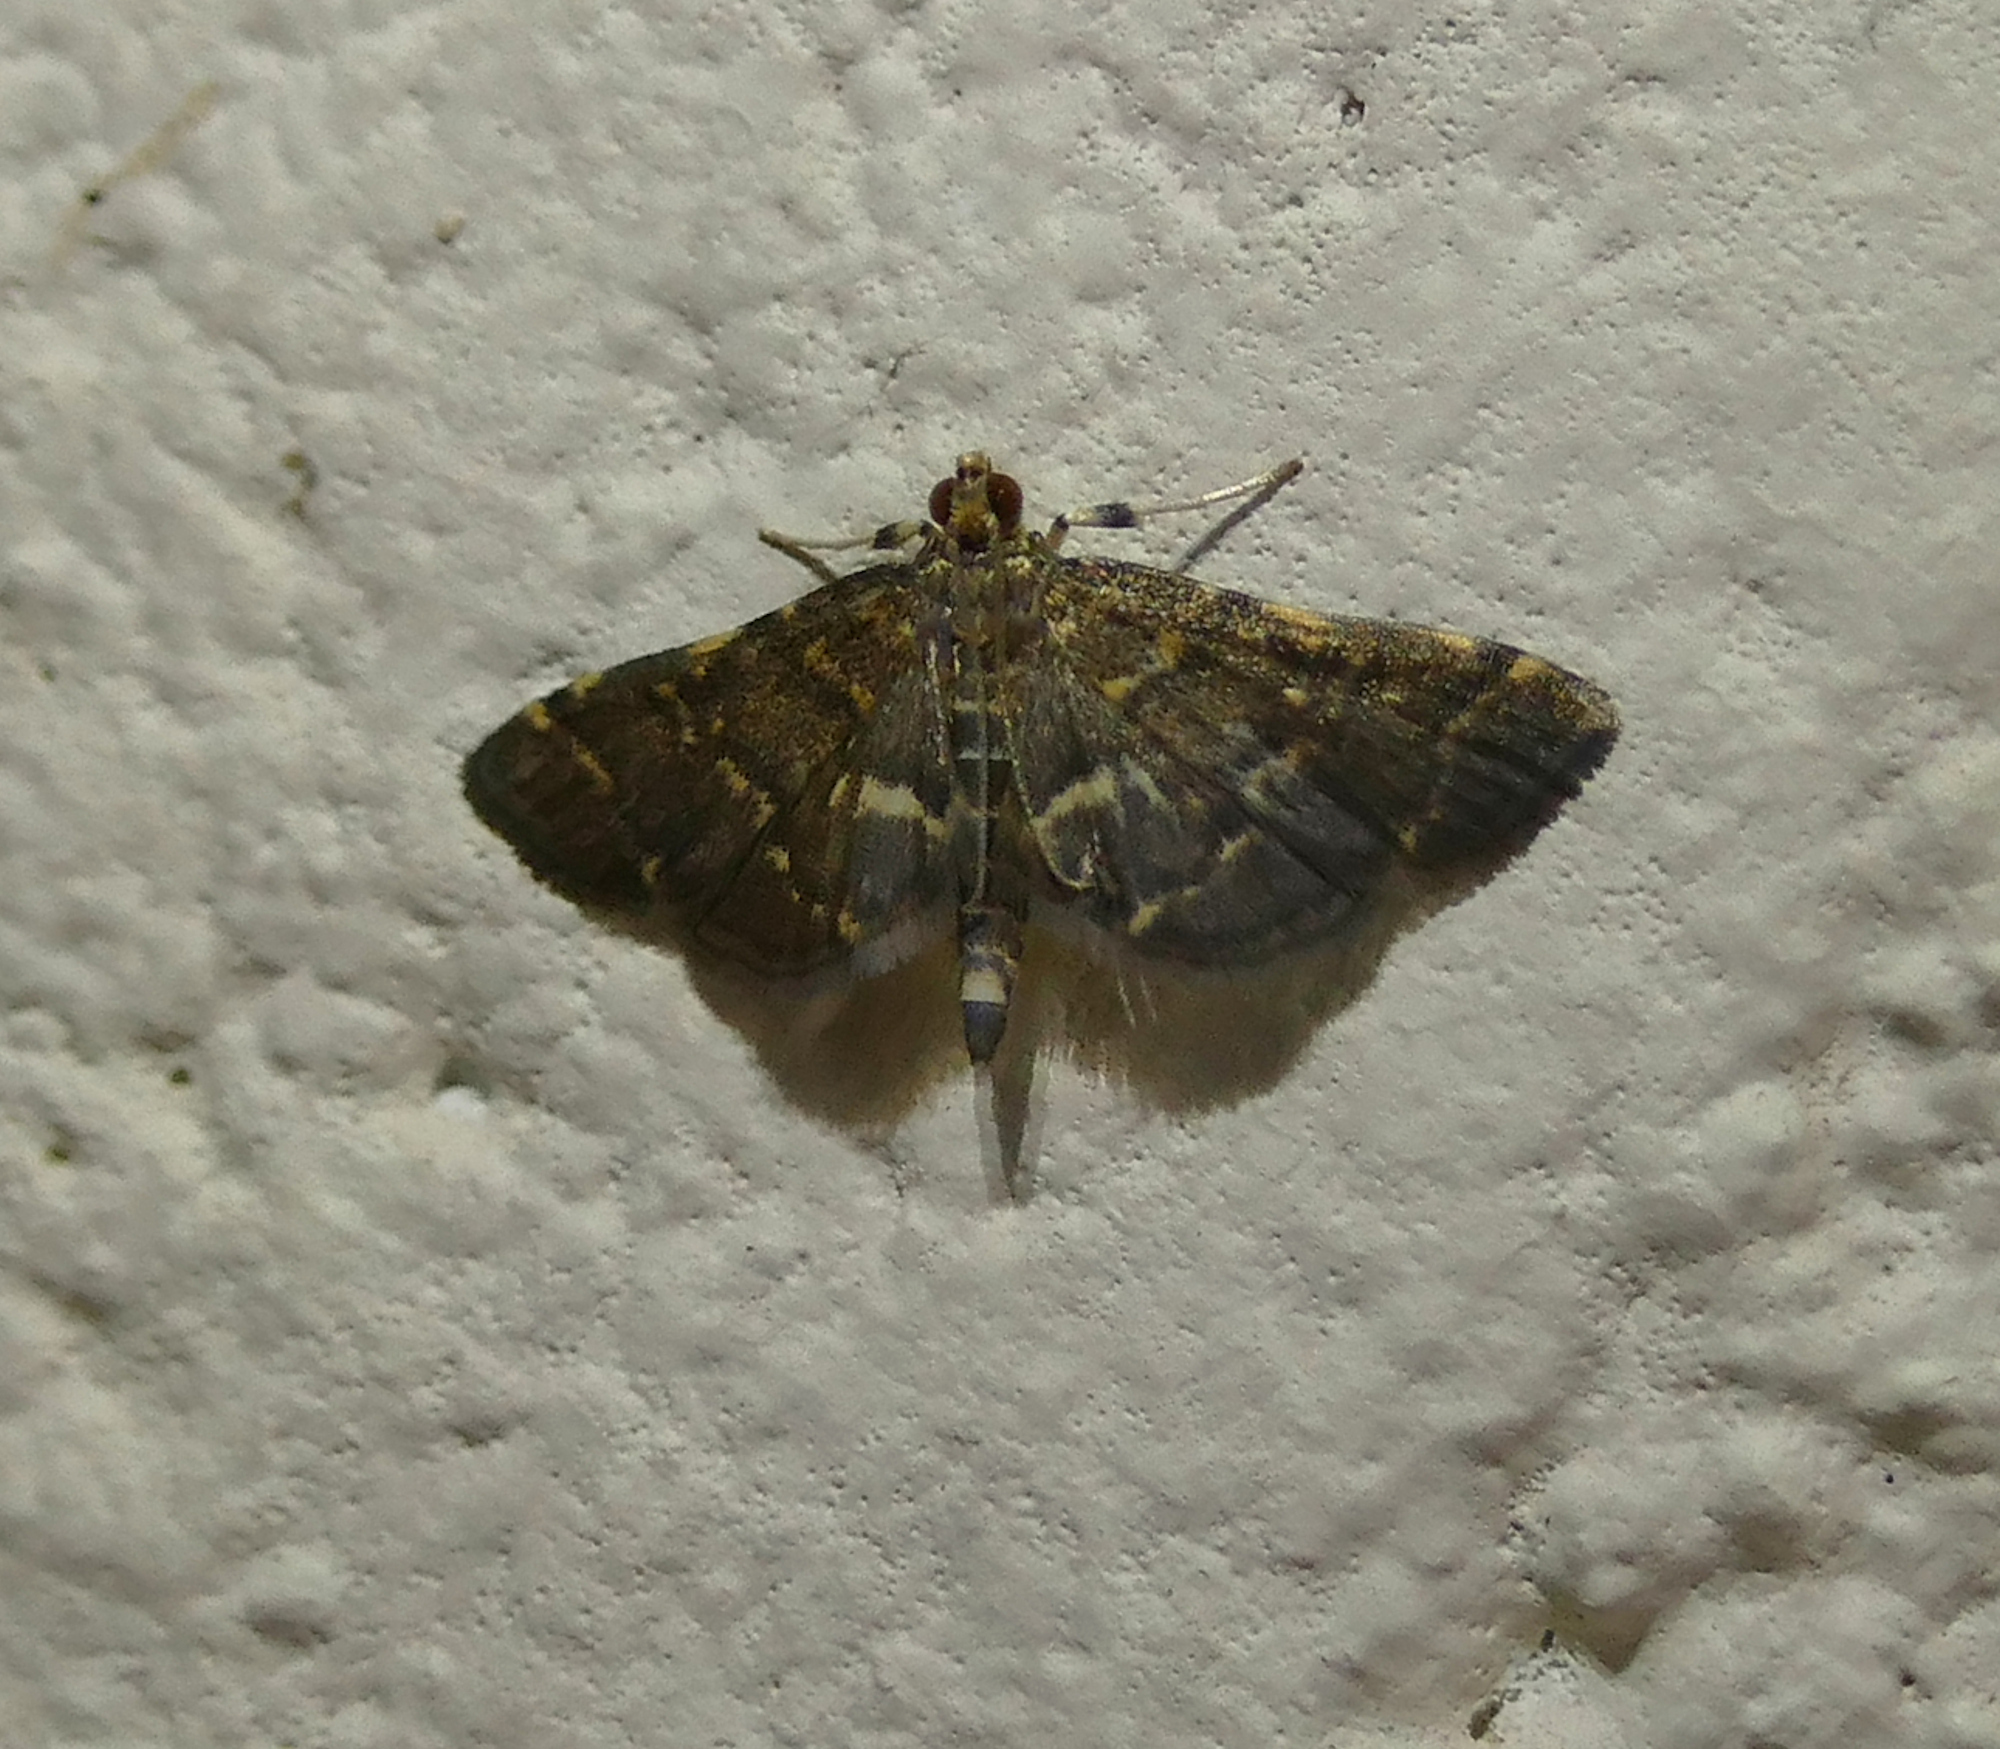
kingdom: Animalia
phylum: Arthropoda
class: Insecta
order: Lepidoptera
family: Crambidae
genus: Anageshna
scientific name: Anageshna primordialis
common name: Yellow-spotted webworm moth
